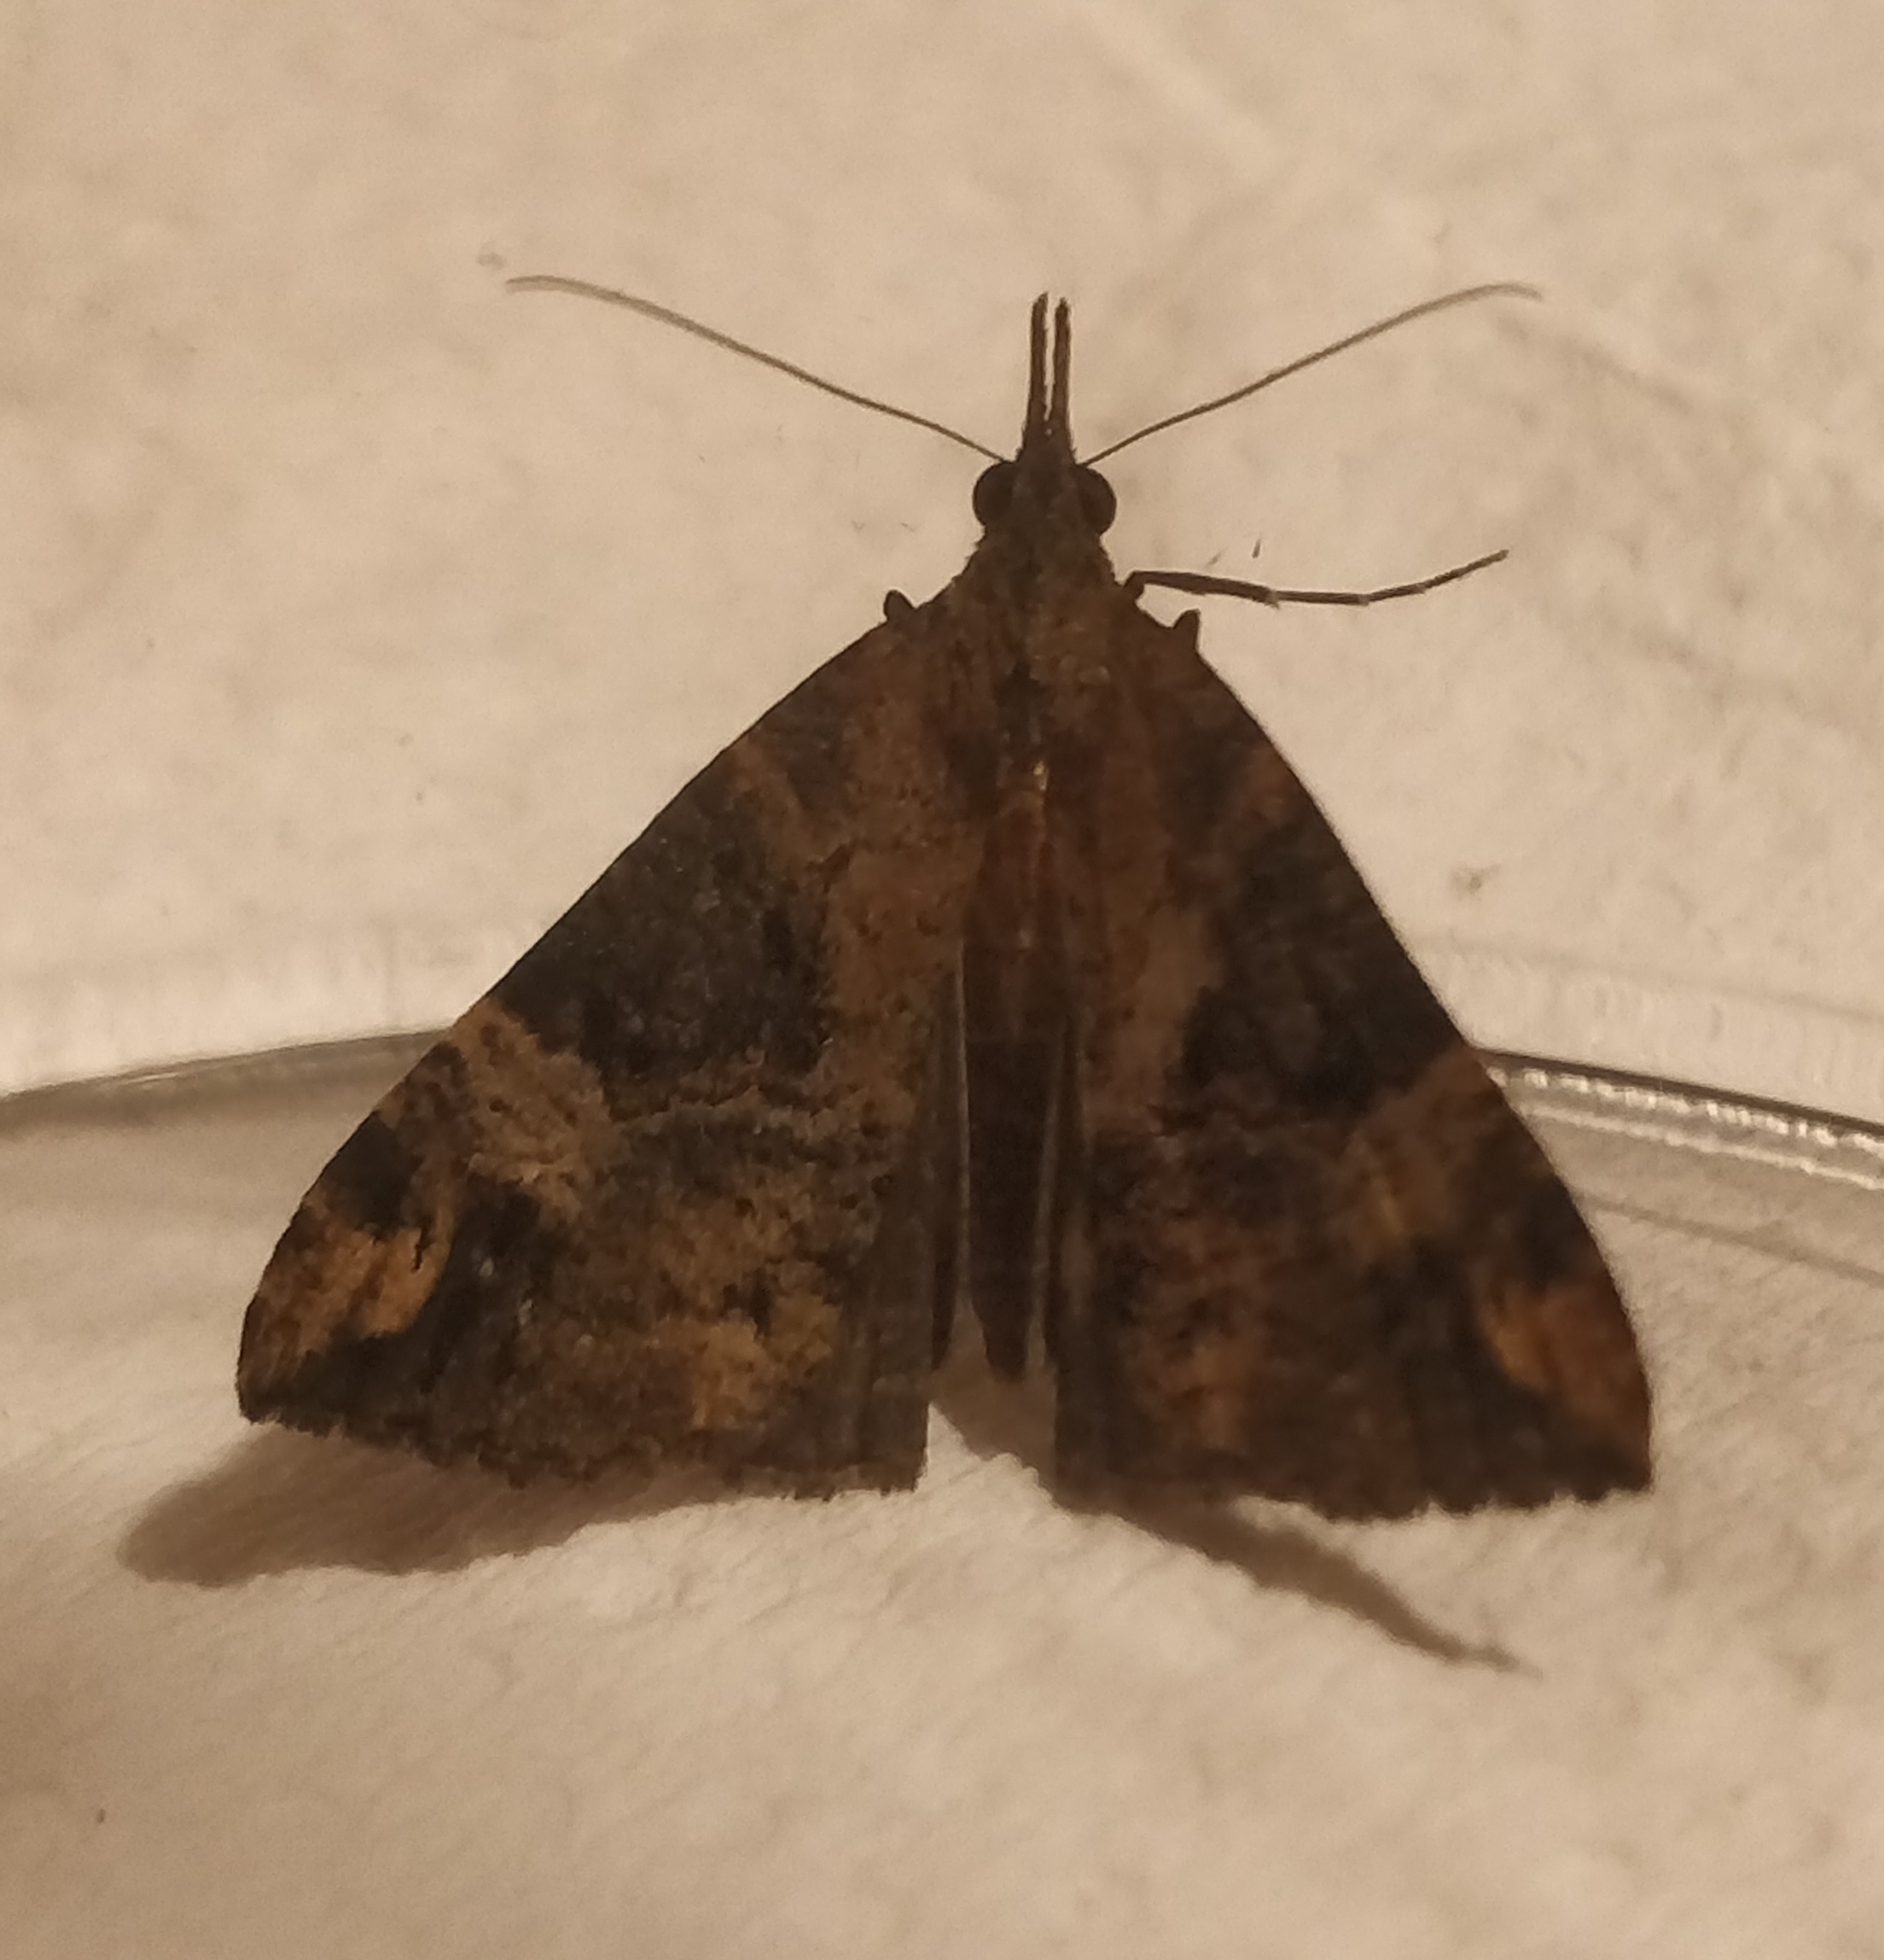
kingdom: Animalia
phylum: Arthropoda
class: Insecta
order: Lepidoptera
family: Erebidae
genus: Hypena
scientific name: Hypena obsitalis
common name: Bloxworth snout
